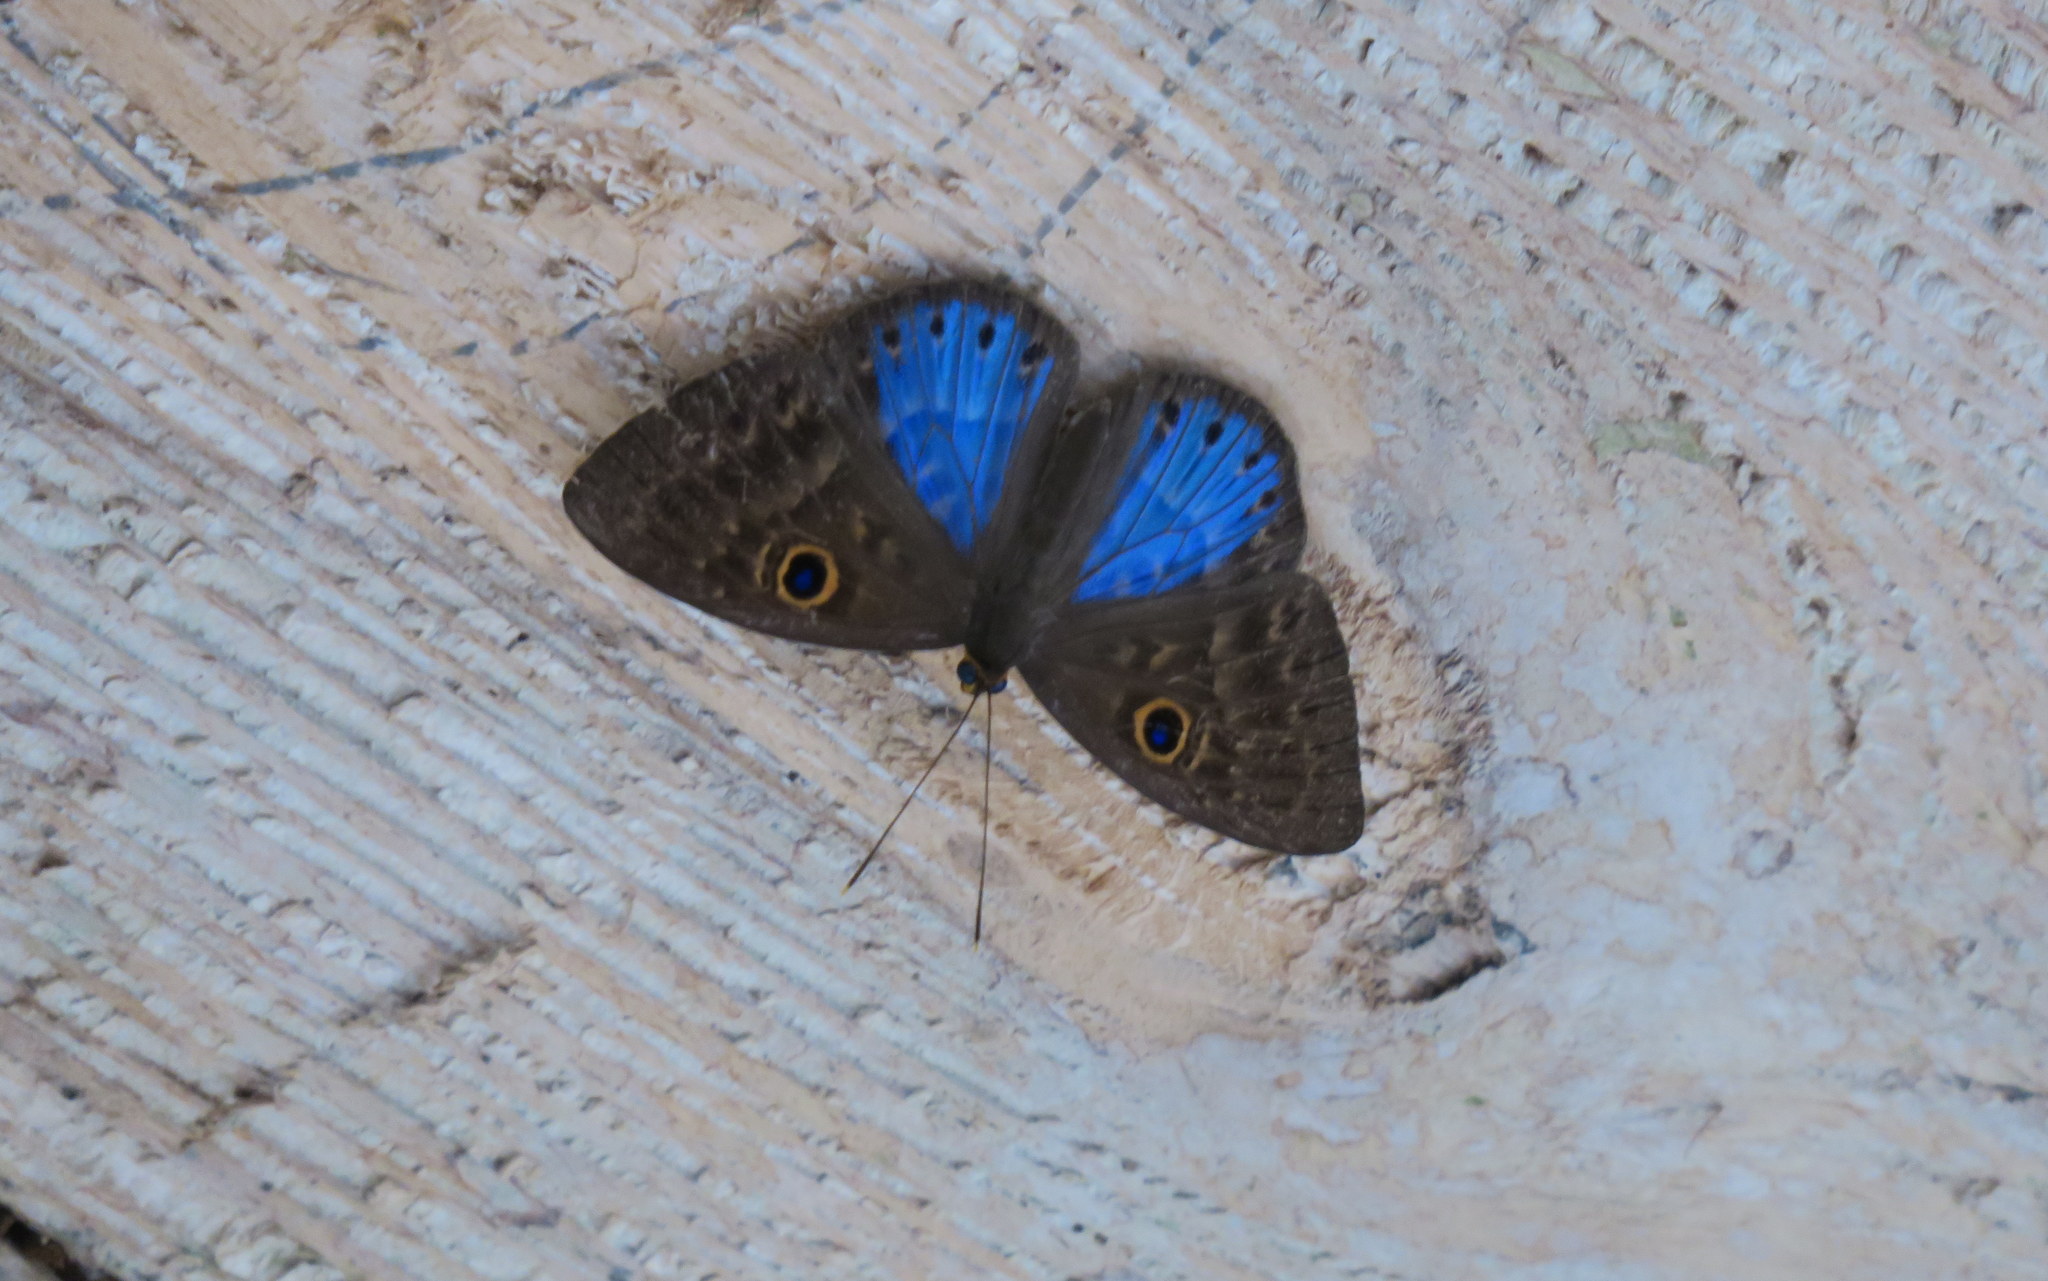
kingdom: Animalia
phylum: Cnidaria
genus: Eurybia
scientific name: Eurybia lycisca
